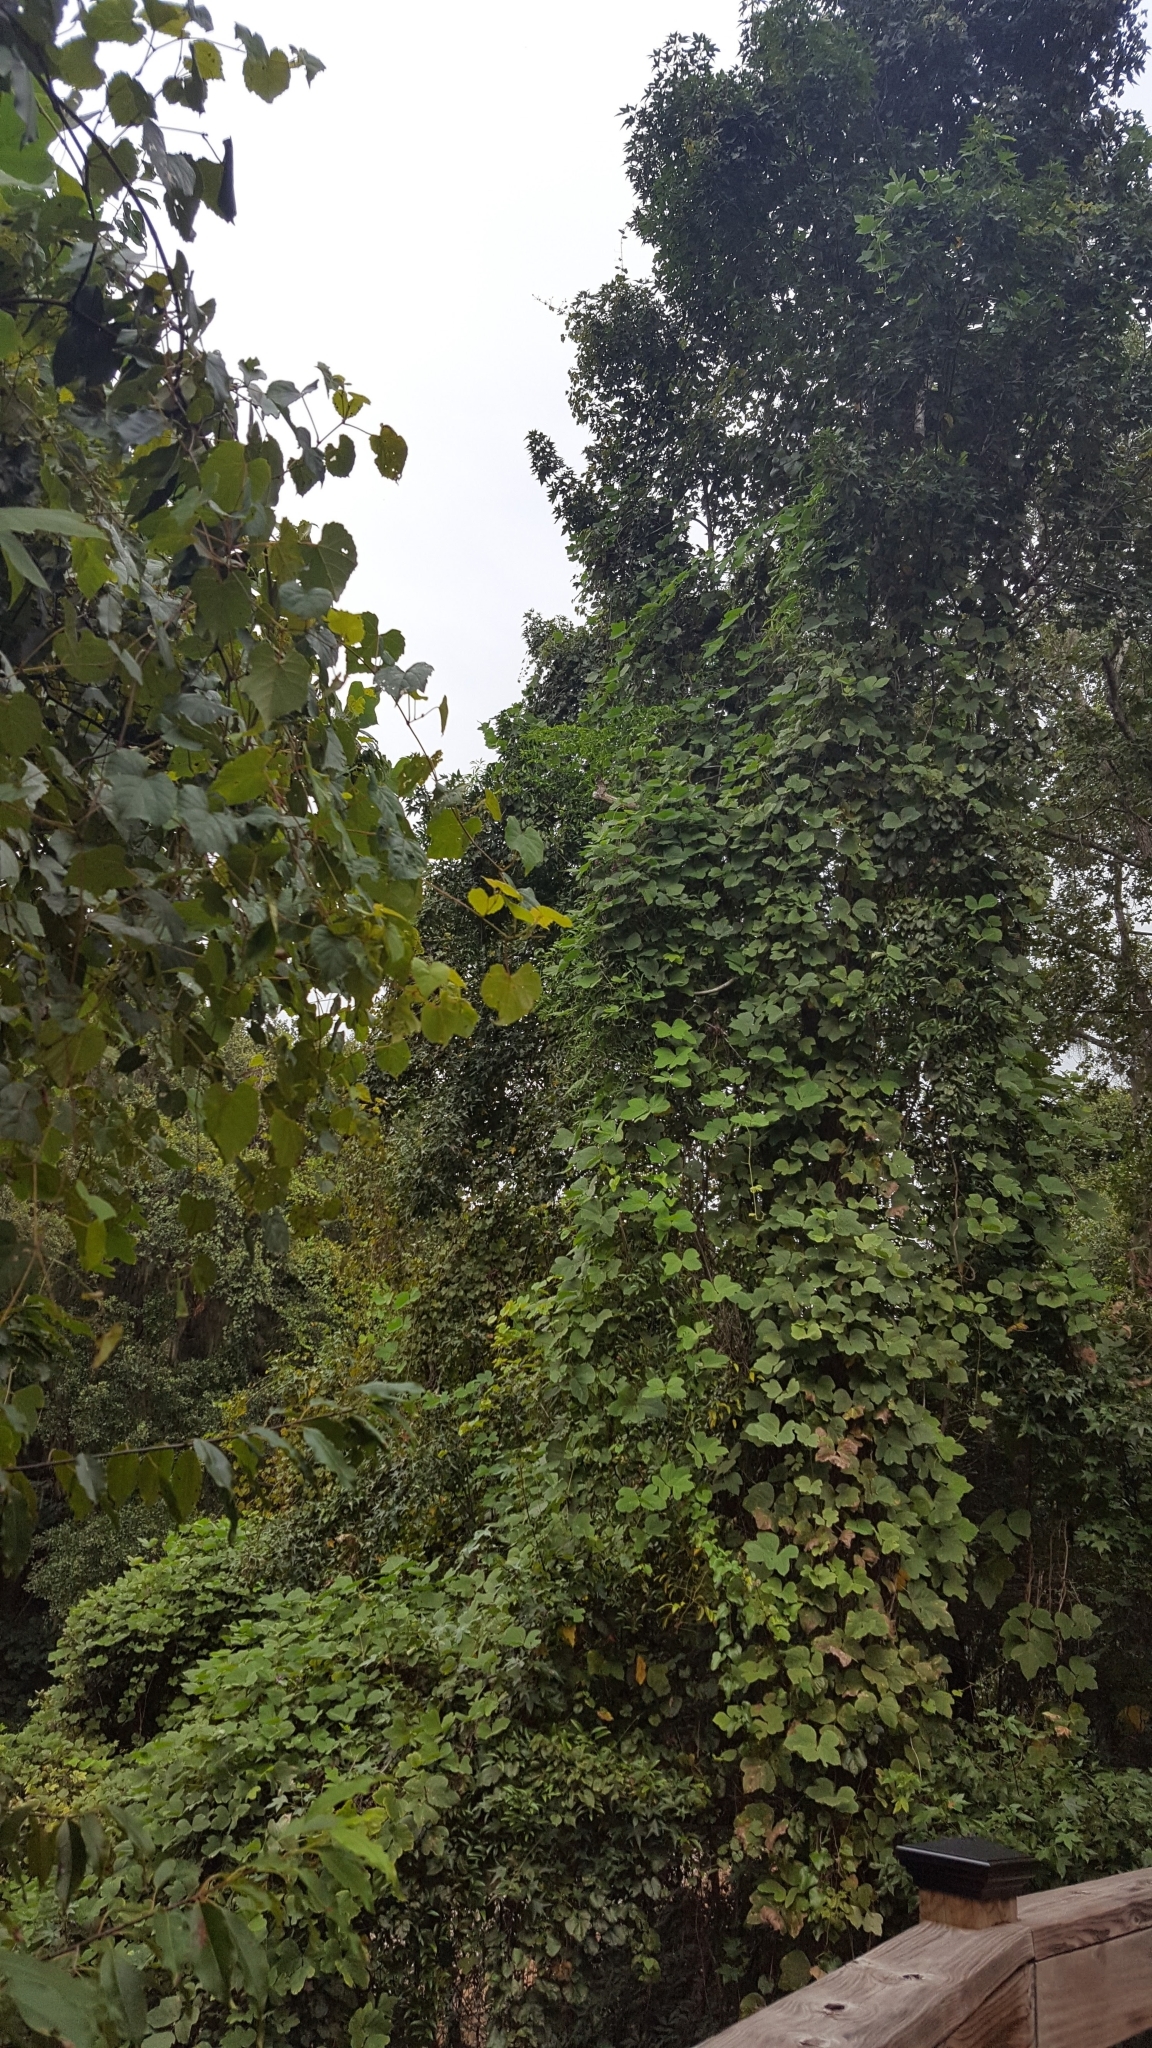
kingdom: Plantae
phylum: Tracheophyta
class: Magnoliopsida
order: Fabales
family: Fabaceae
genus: Pueraria
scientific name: Pueraria montana
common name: Kudzu
